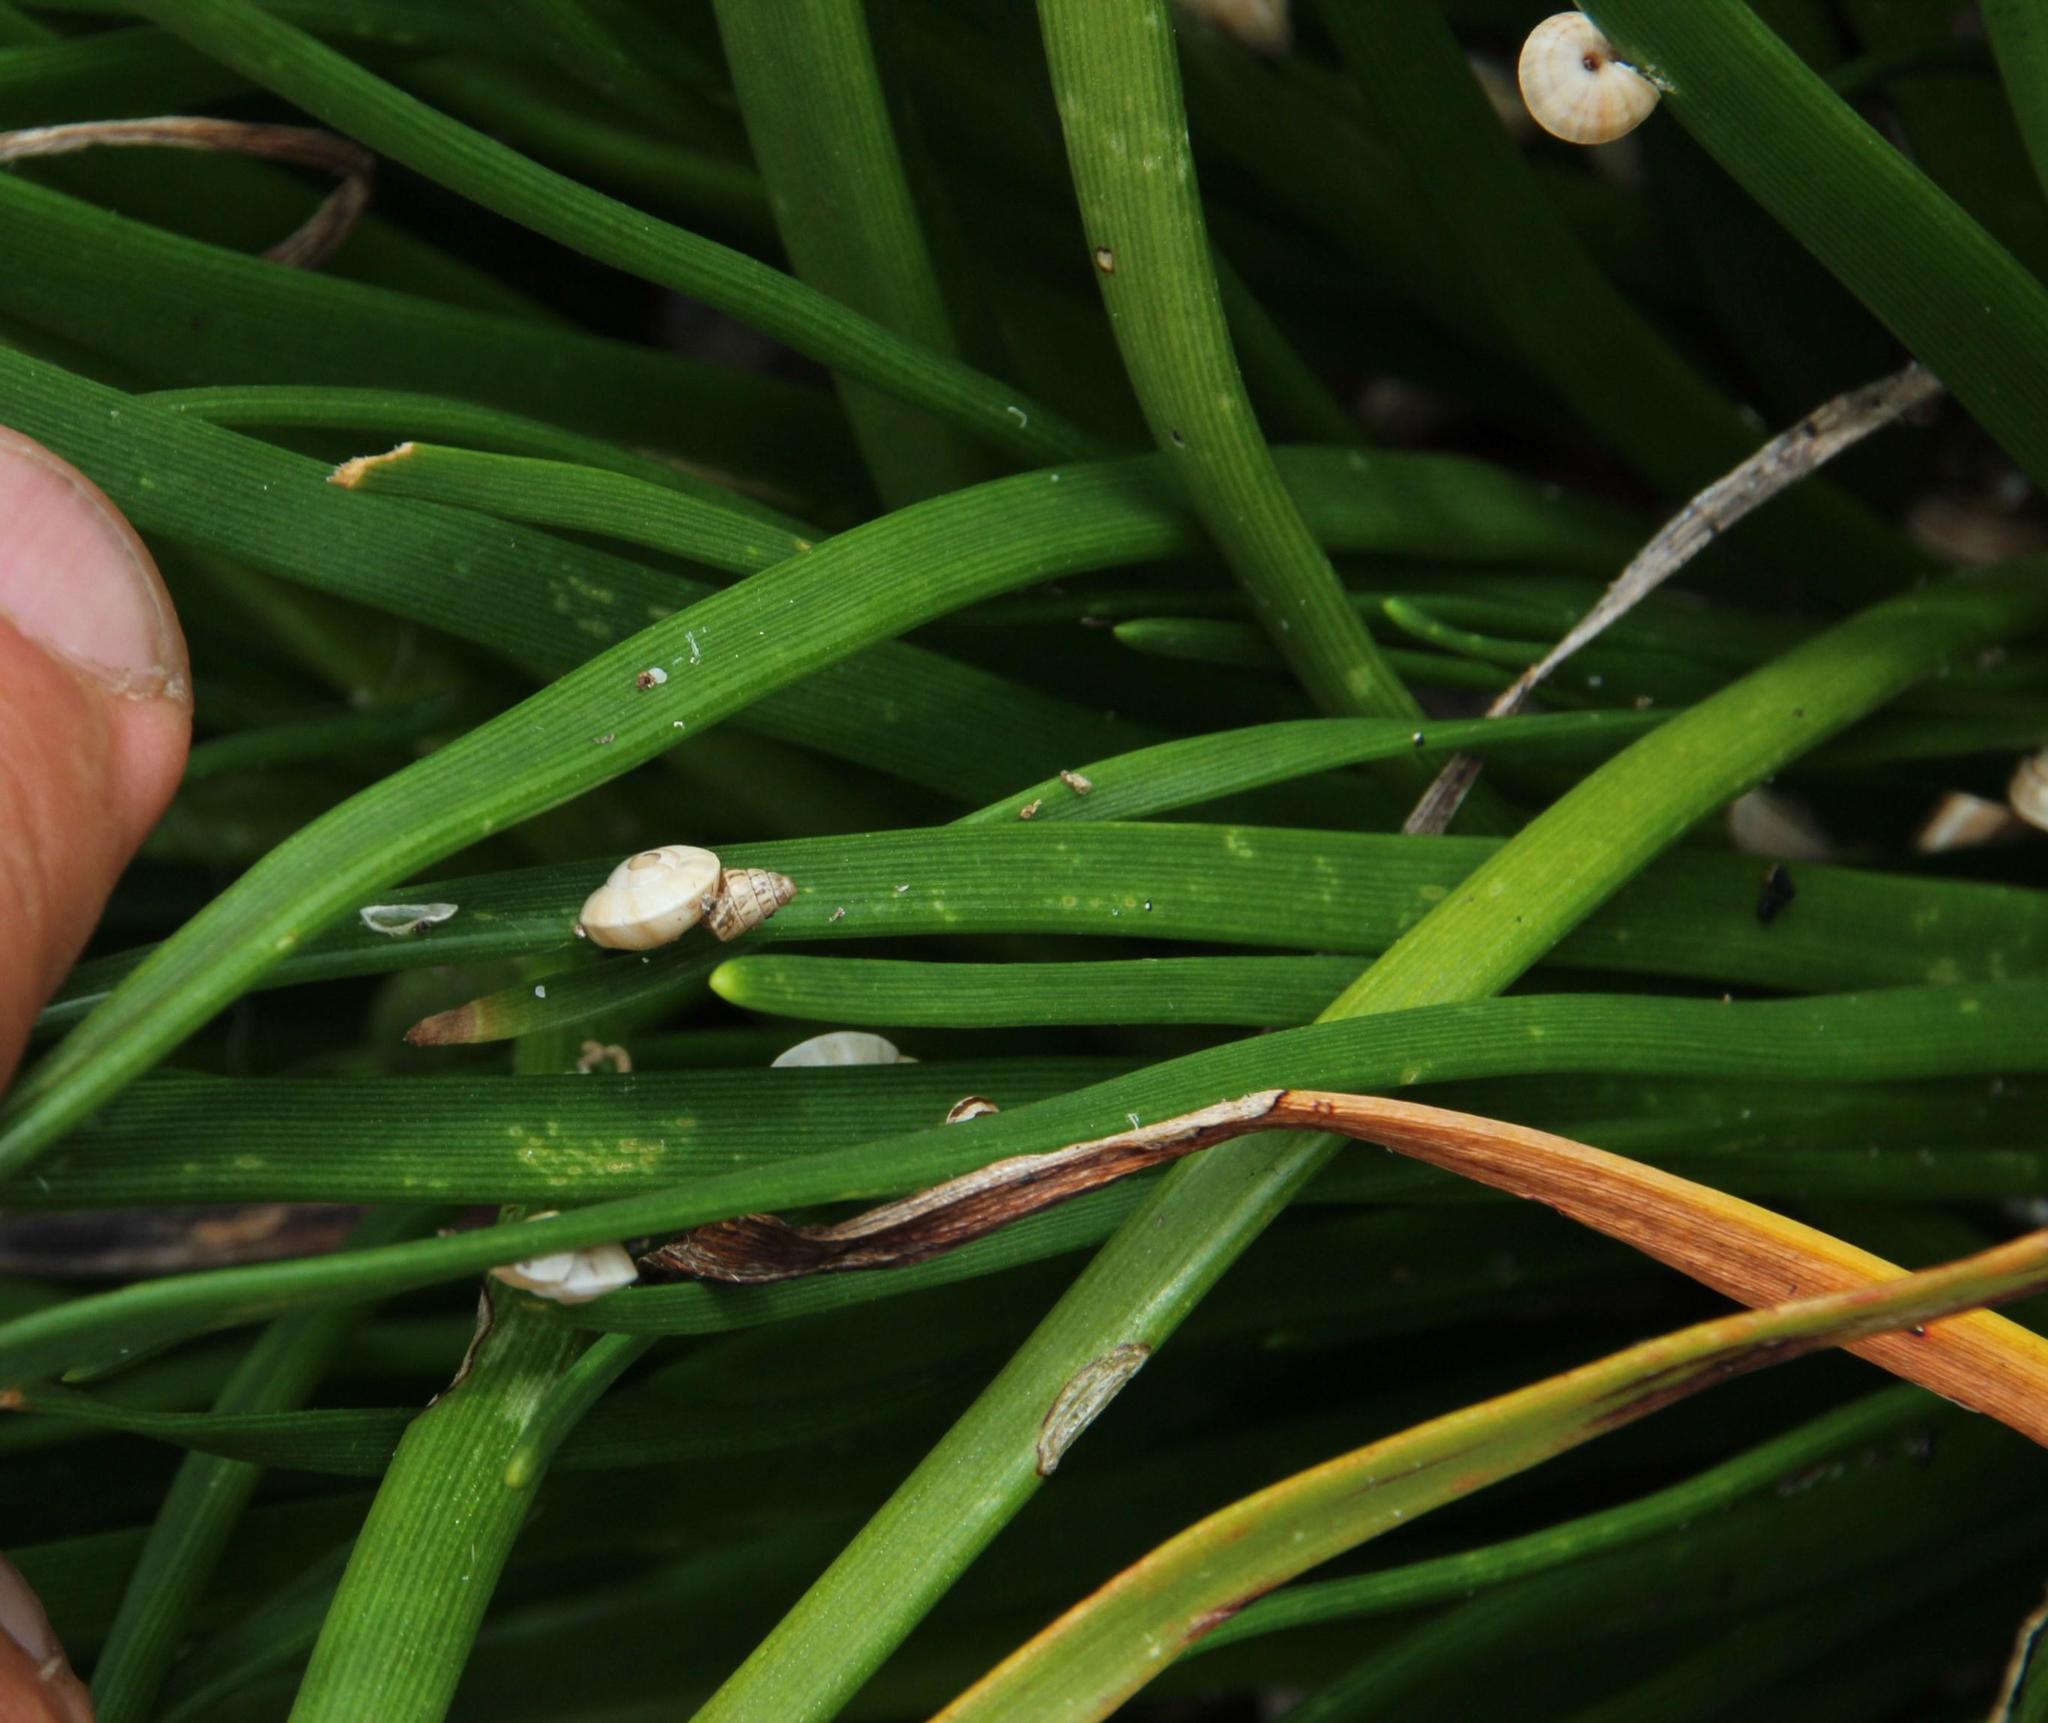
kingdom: Animalia
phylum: Mollusca
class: Gastropoda
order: Stylommatophora
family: Helicidae
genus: Theba
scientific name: Theba pisana
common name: White snail
